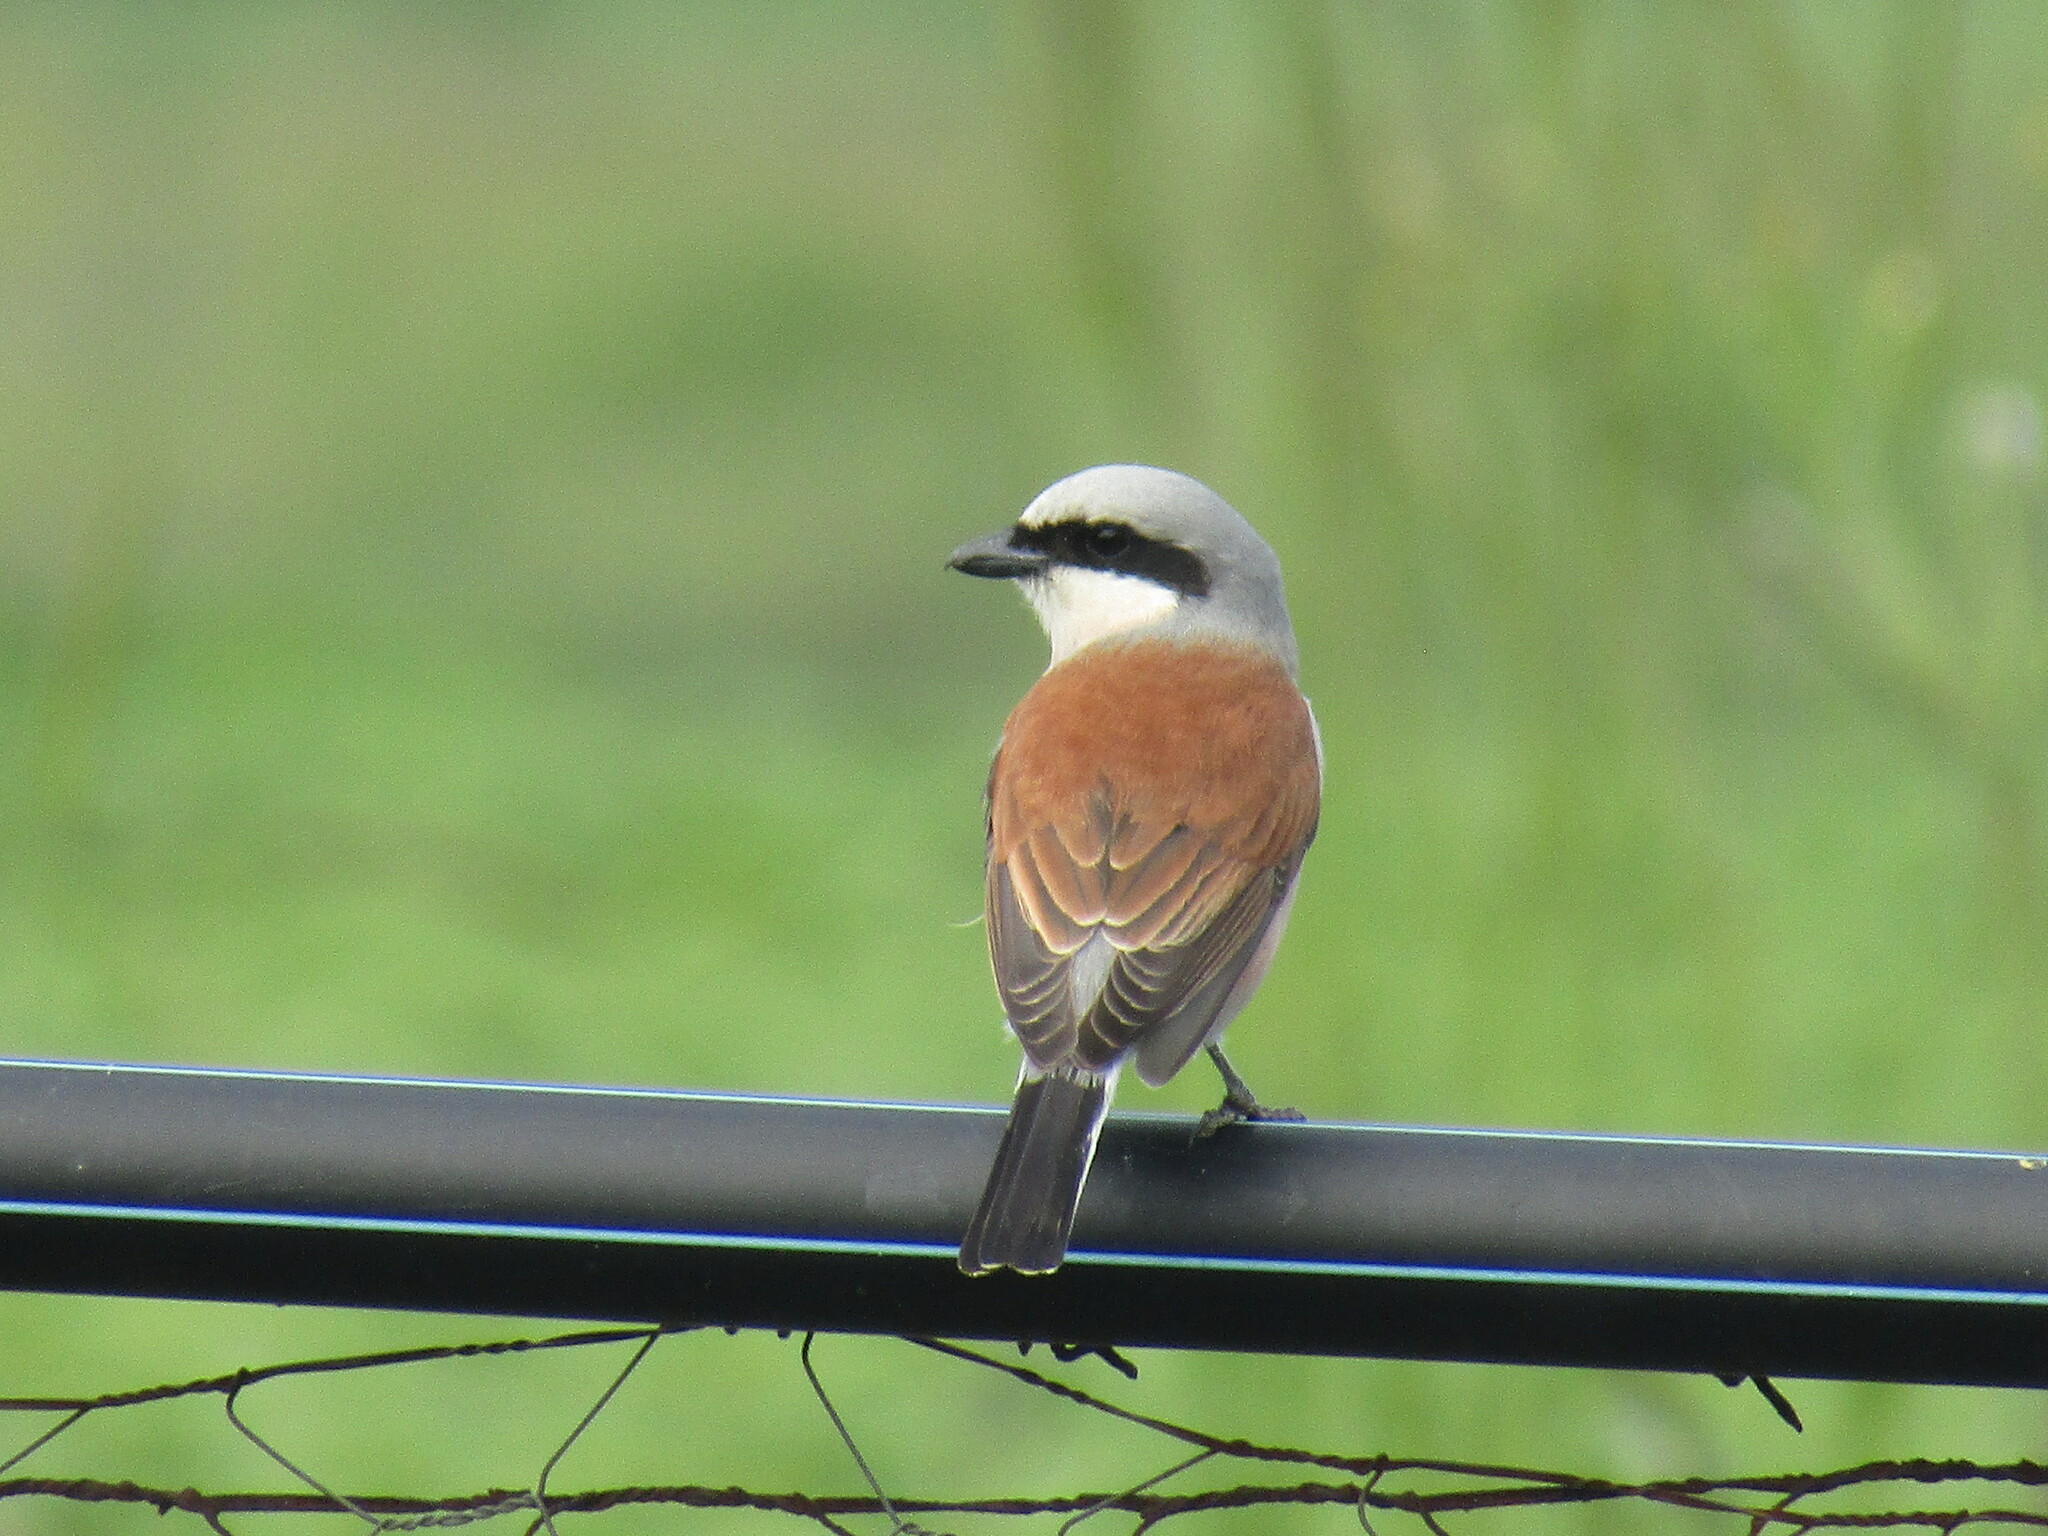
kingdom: Animalia
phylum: Chordata
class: Aves
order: Passeriformes
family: Laniidae
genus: Lanius
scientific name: Lanius collurio
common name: Red-backed shrike
